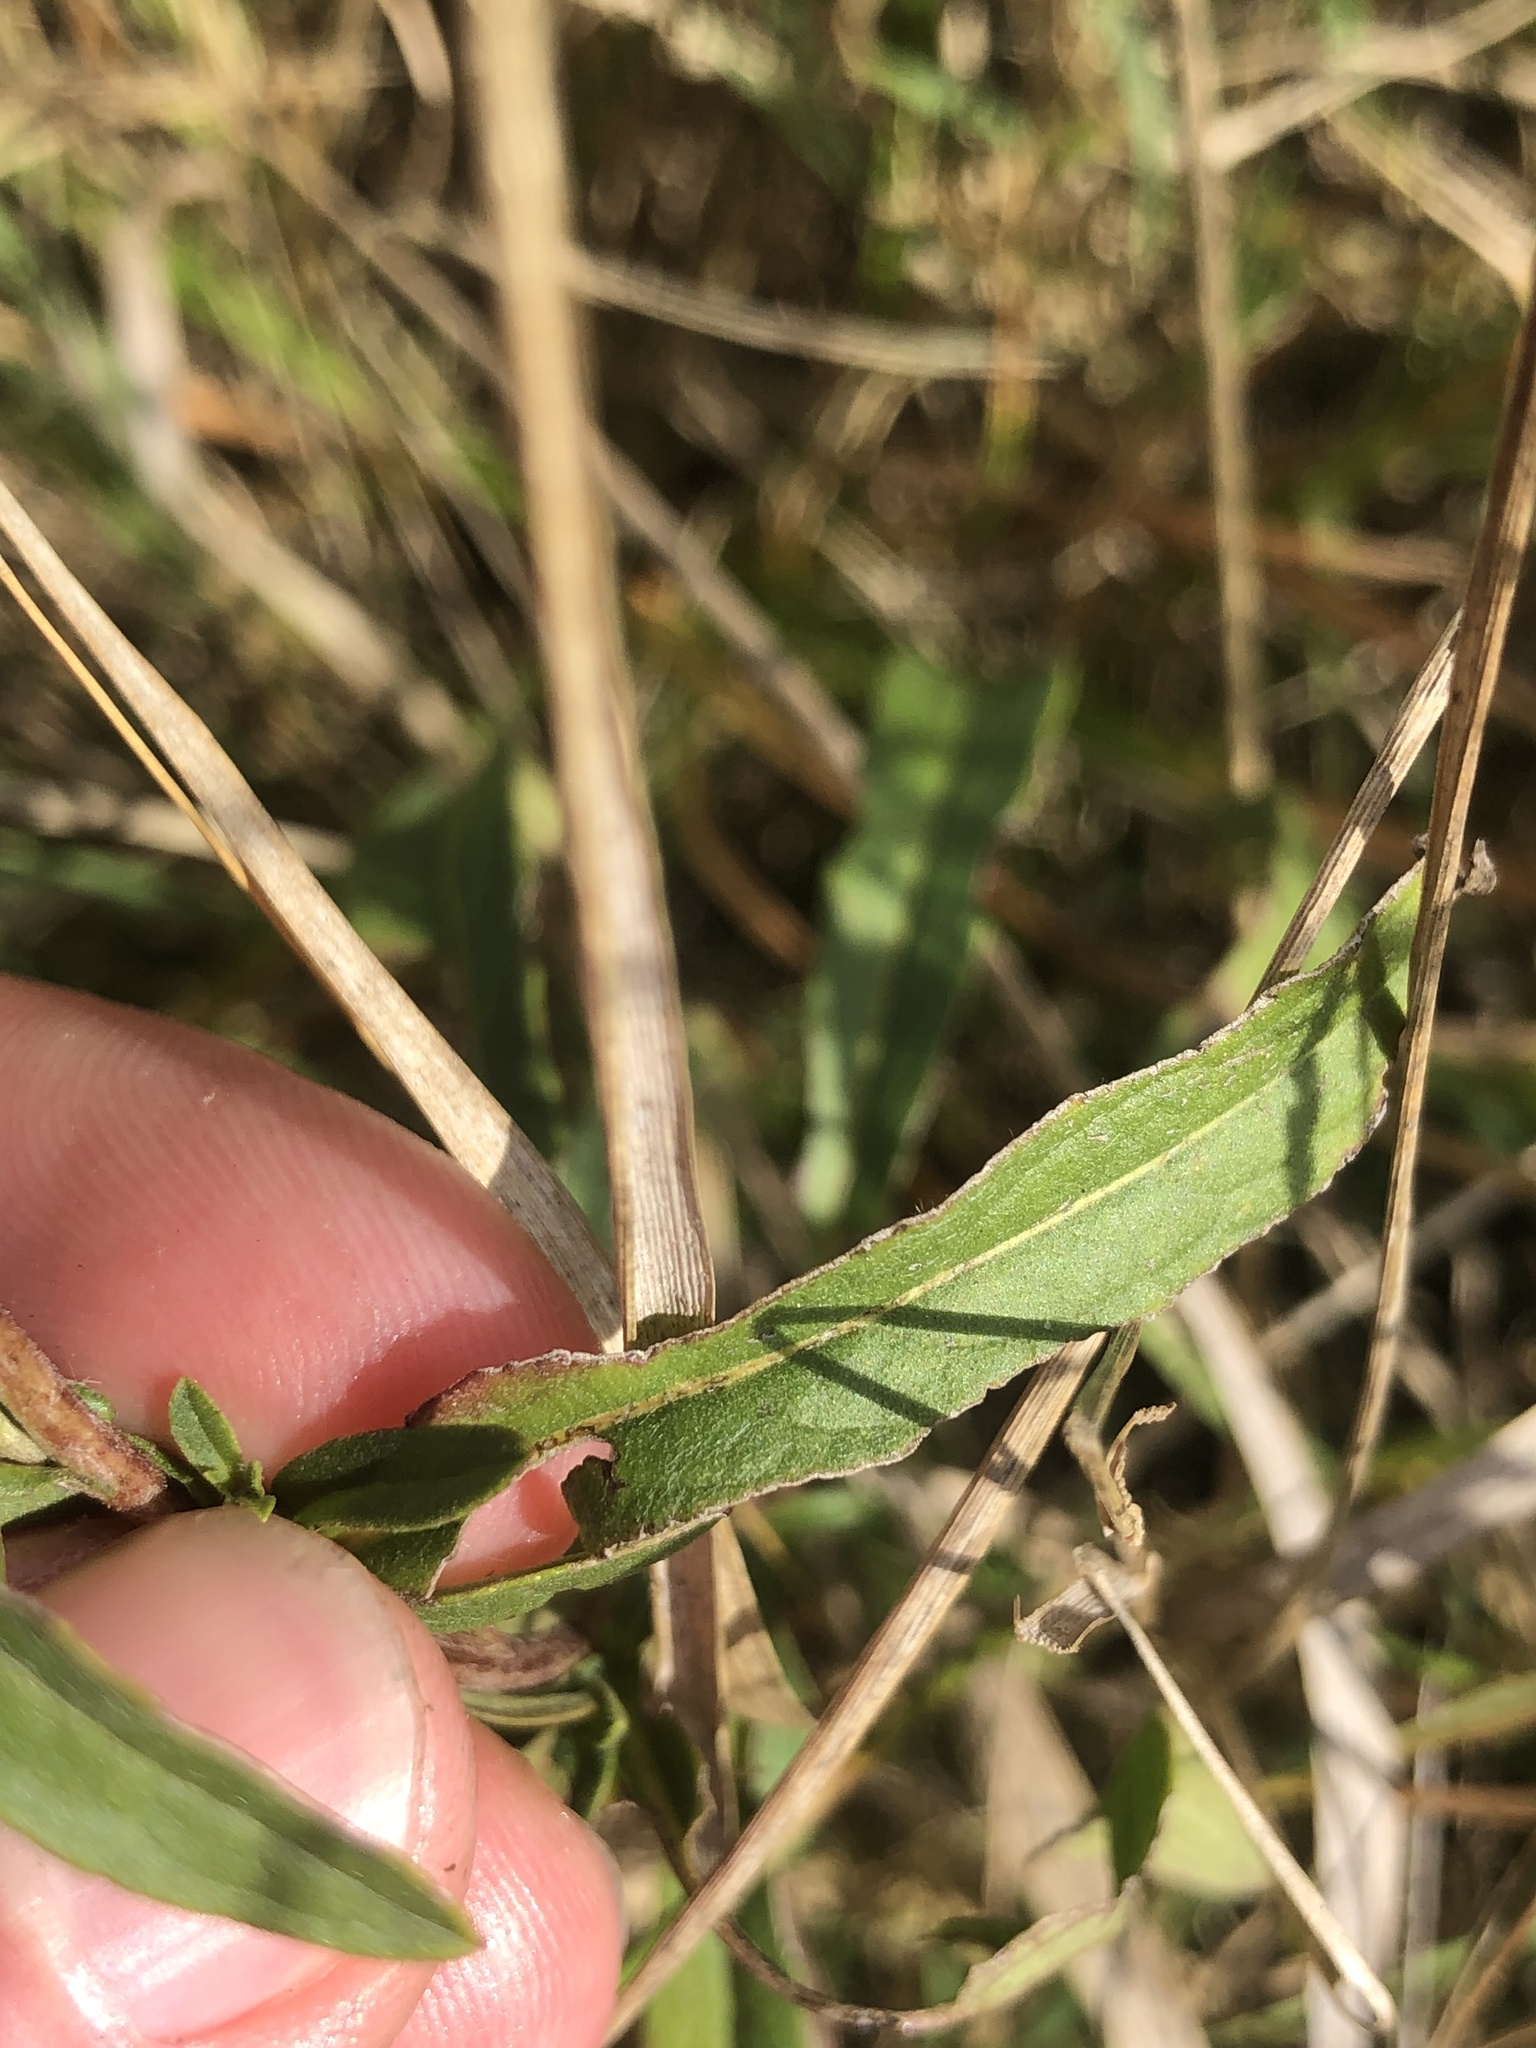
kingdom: Plantae
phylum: Tracheophyta
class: Magnoliopsida
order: Asterales
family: Asteraceae
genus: Pentanema
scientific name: Pentanema britannicum
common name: British elecampane
